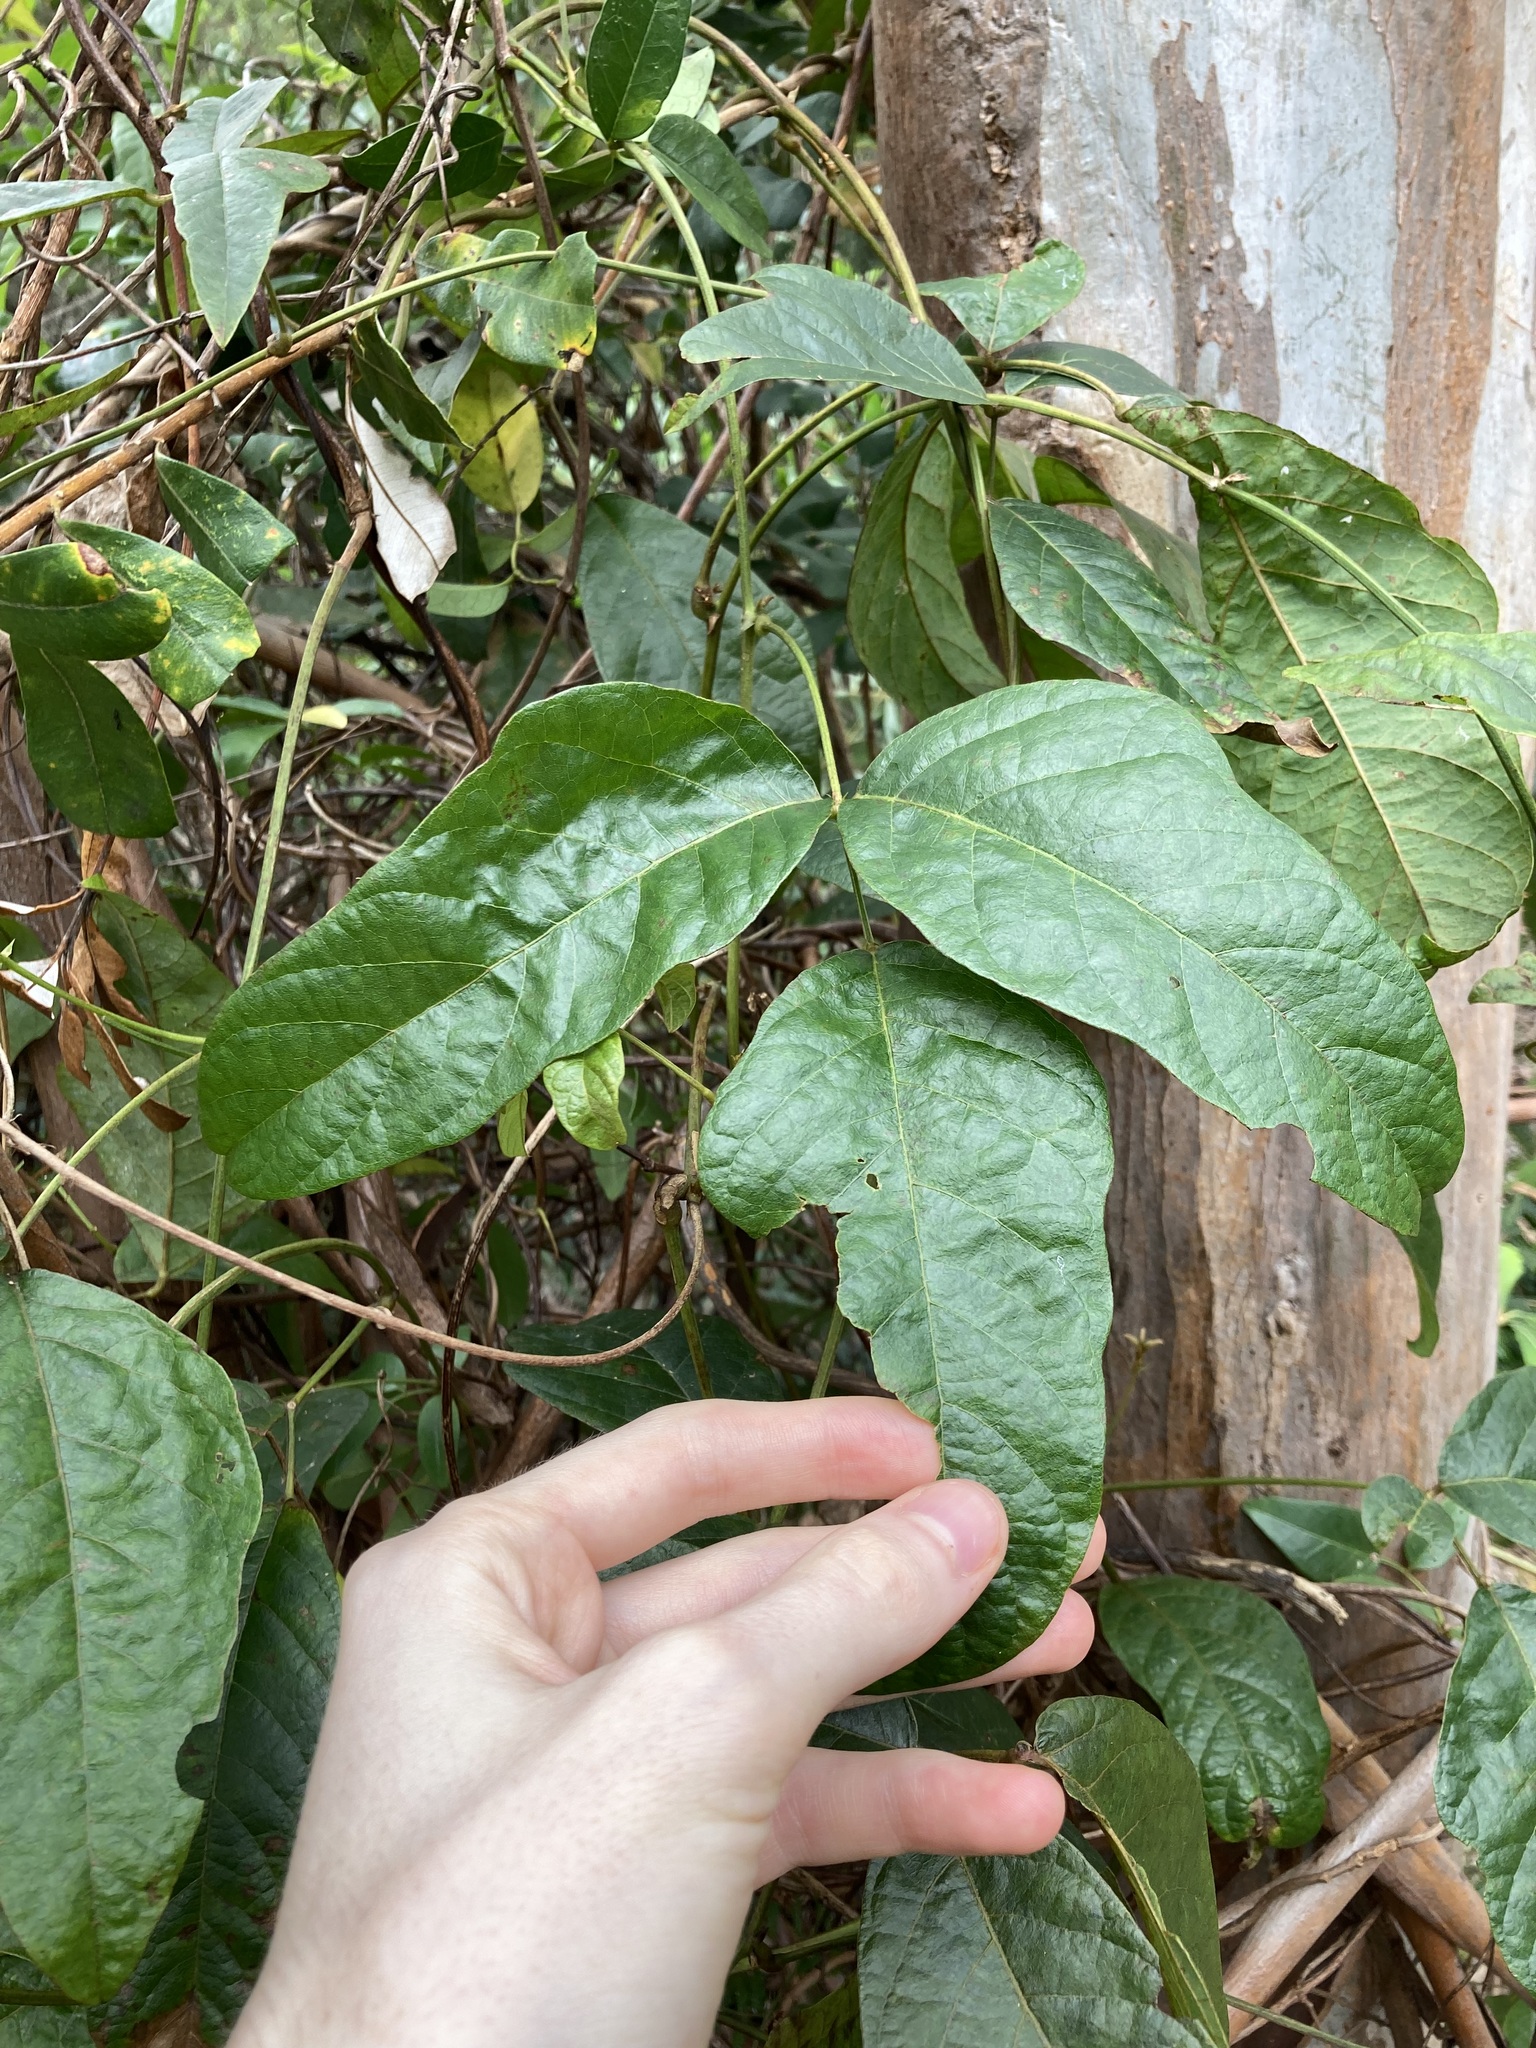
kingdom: Plantae
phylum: Tracheophyta
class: Magnoliopsida
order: Fabales
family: Fabaceae
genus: Kennedia
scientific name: Kennedia rubicunda
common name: Red kennedy-pea
